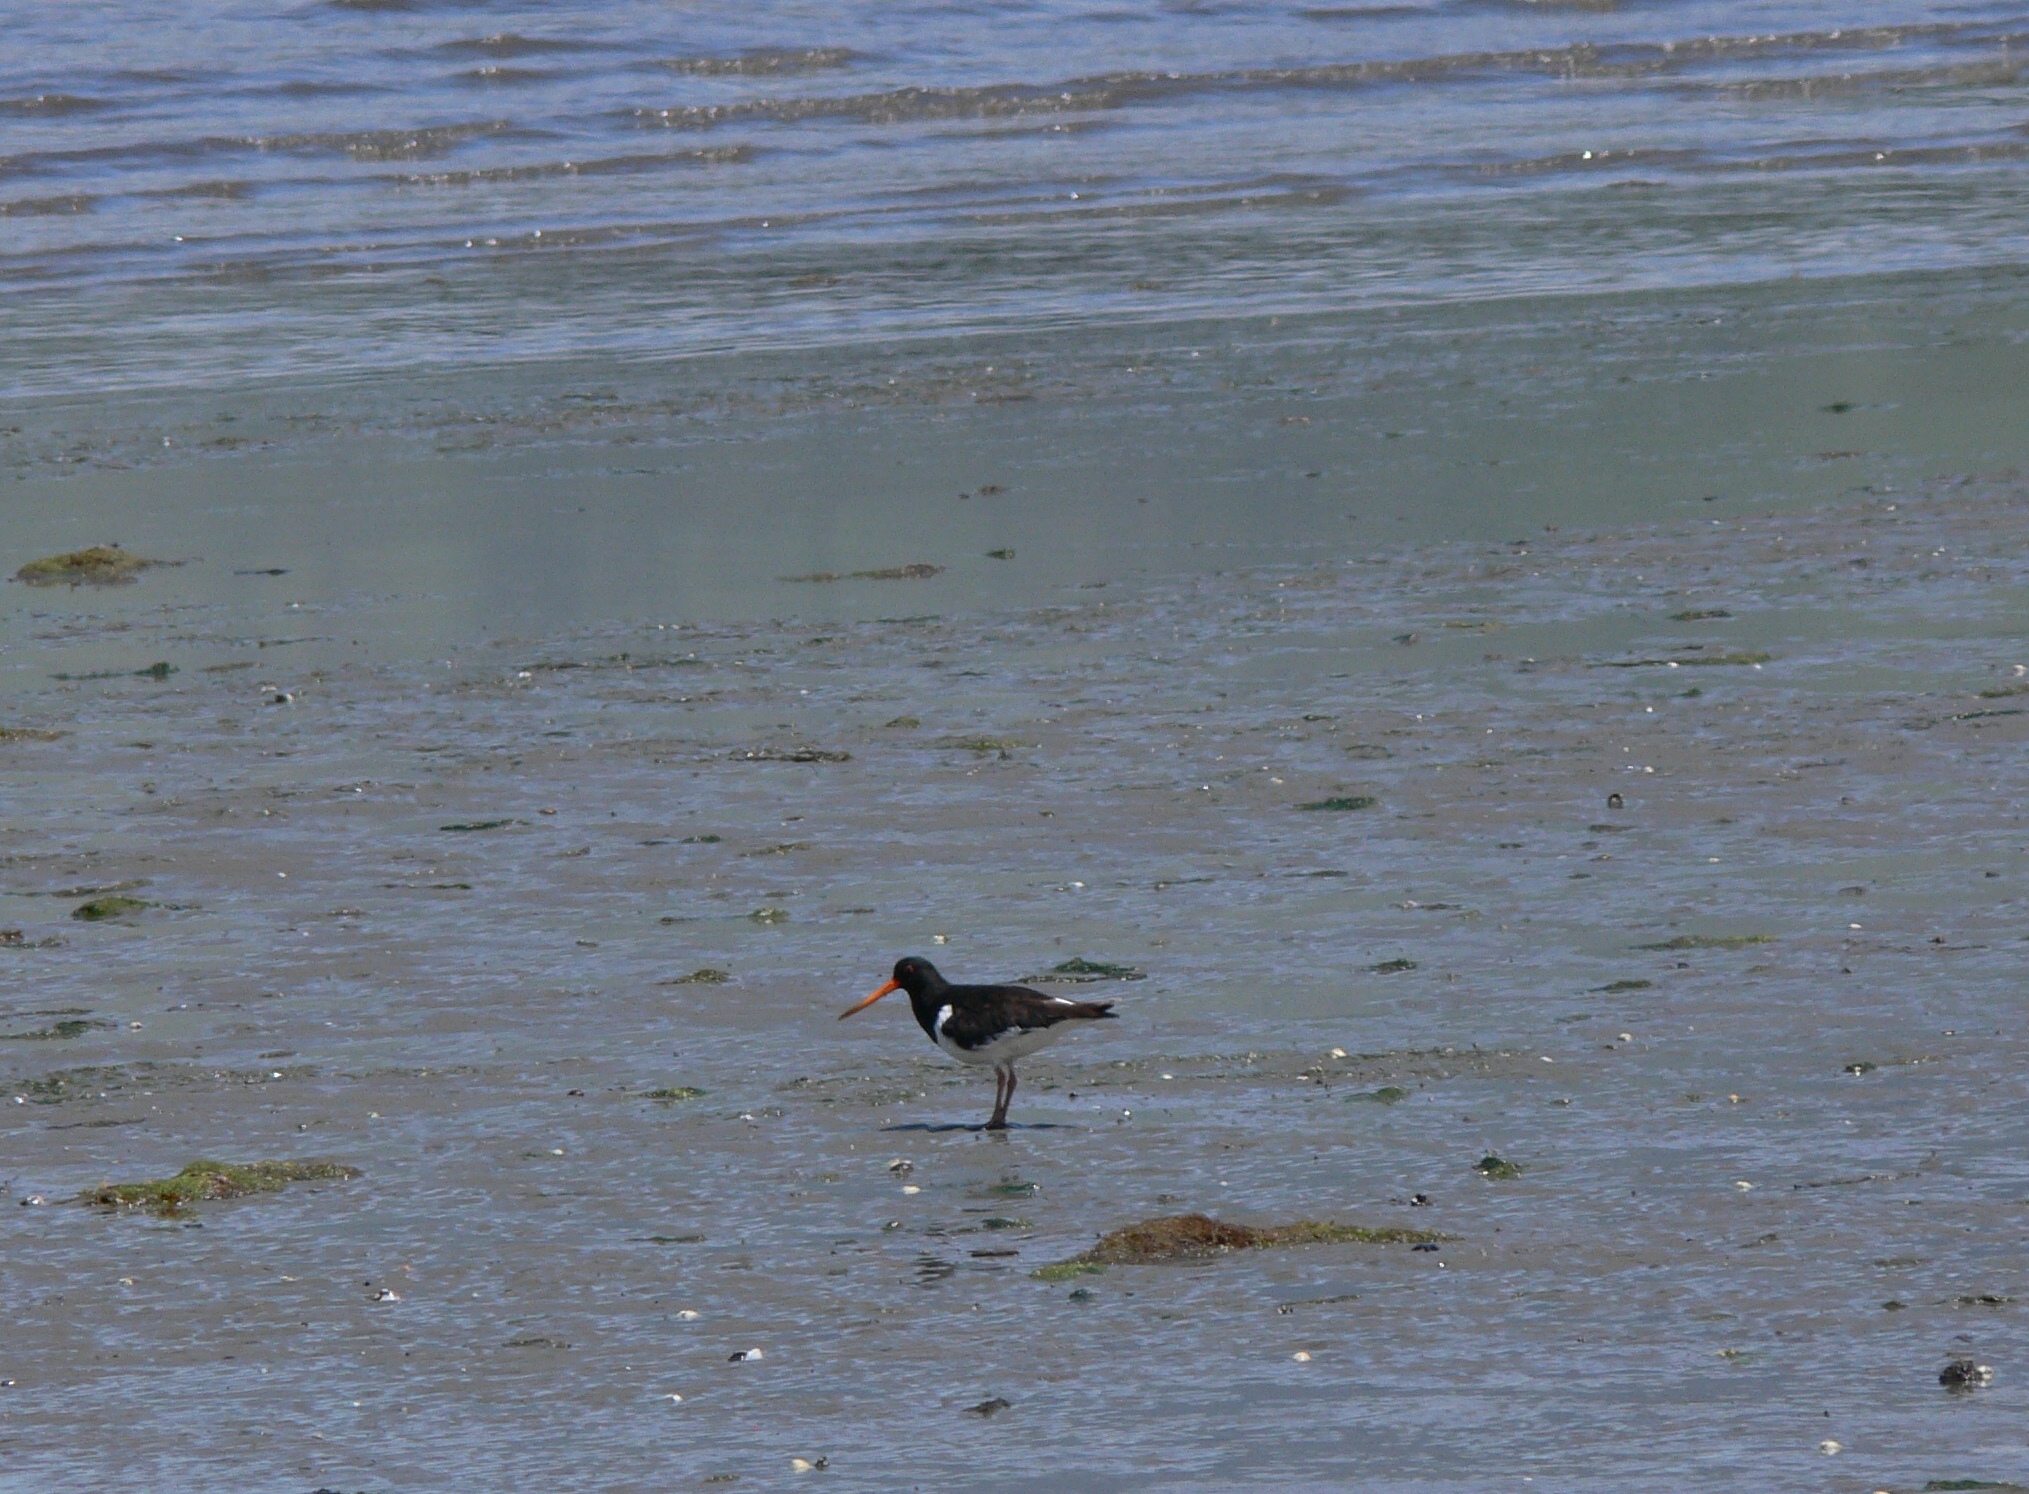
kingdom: Animalia
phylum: Chordata
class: Aves
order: Charadriiformes
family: Haematopodidae
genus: Haematopus
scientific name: Haematopus finschi
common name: South island oystercatcher
